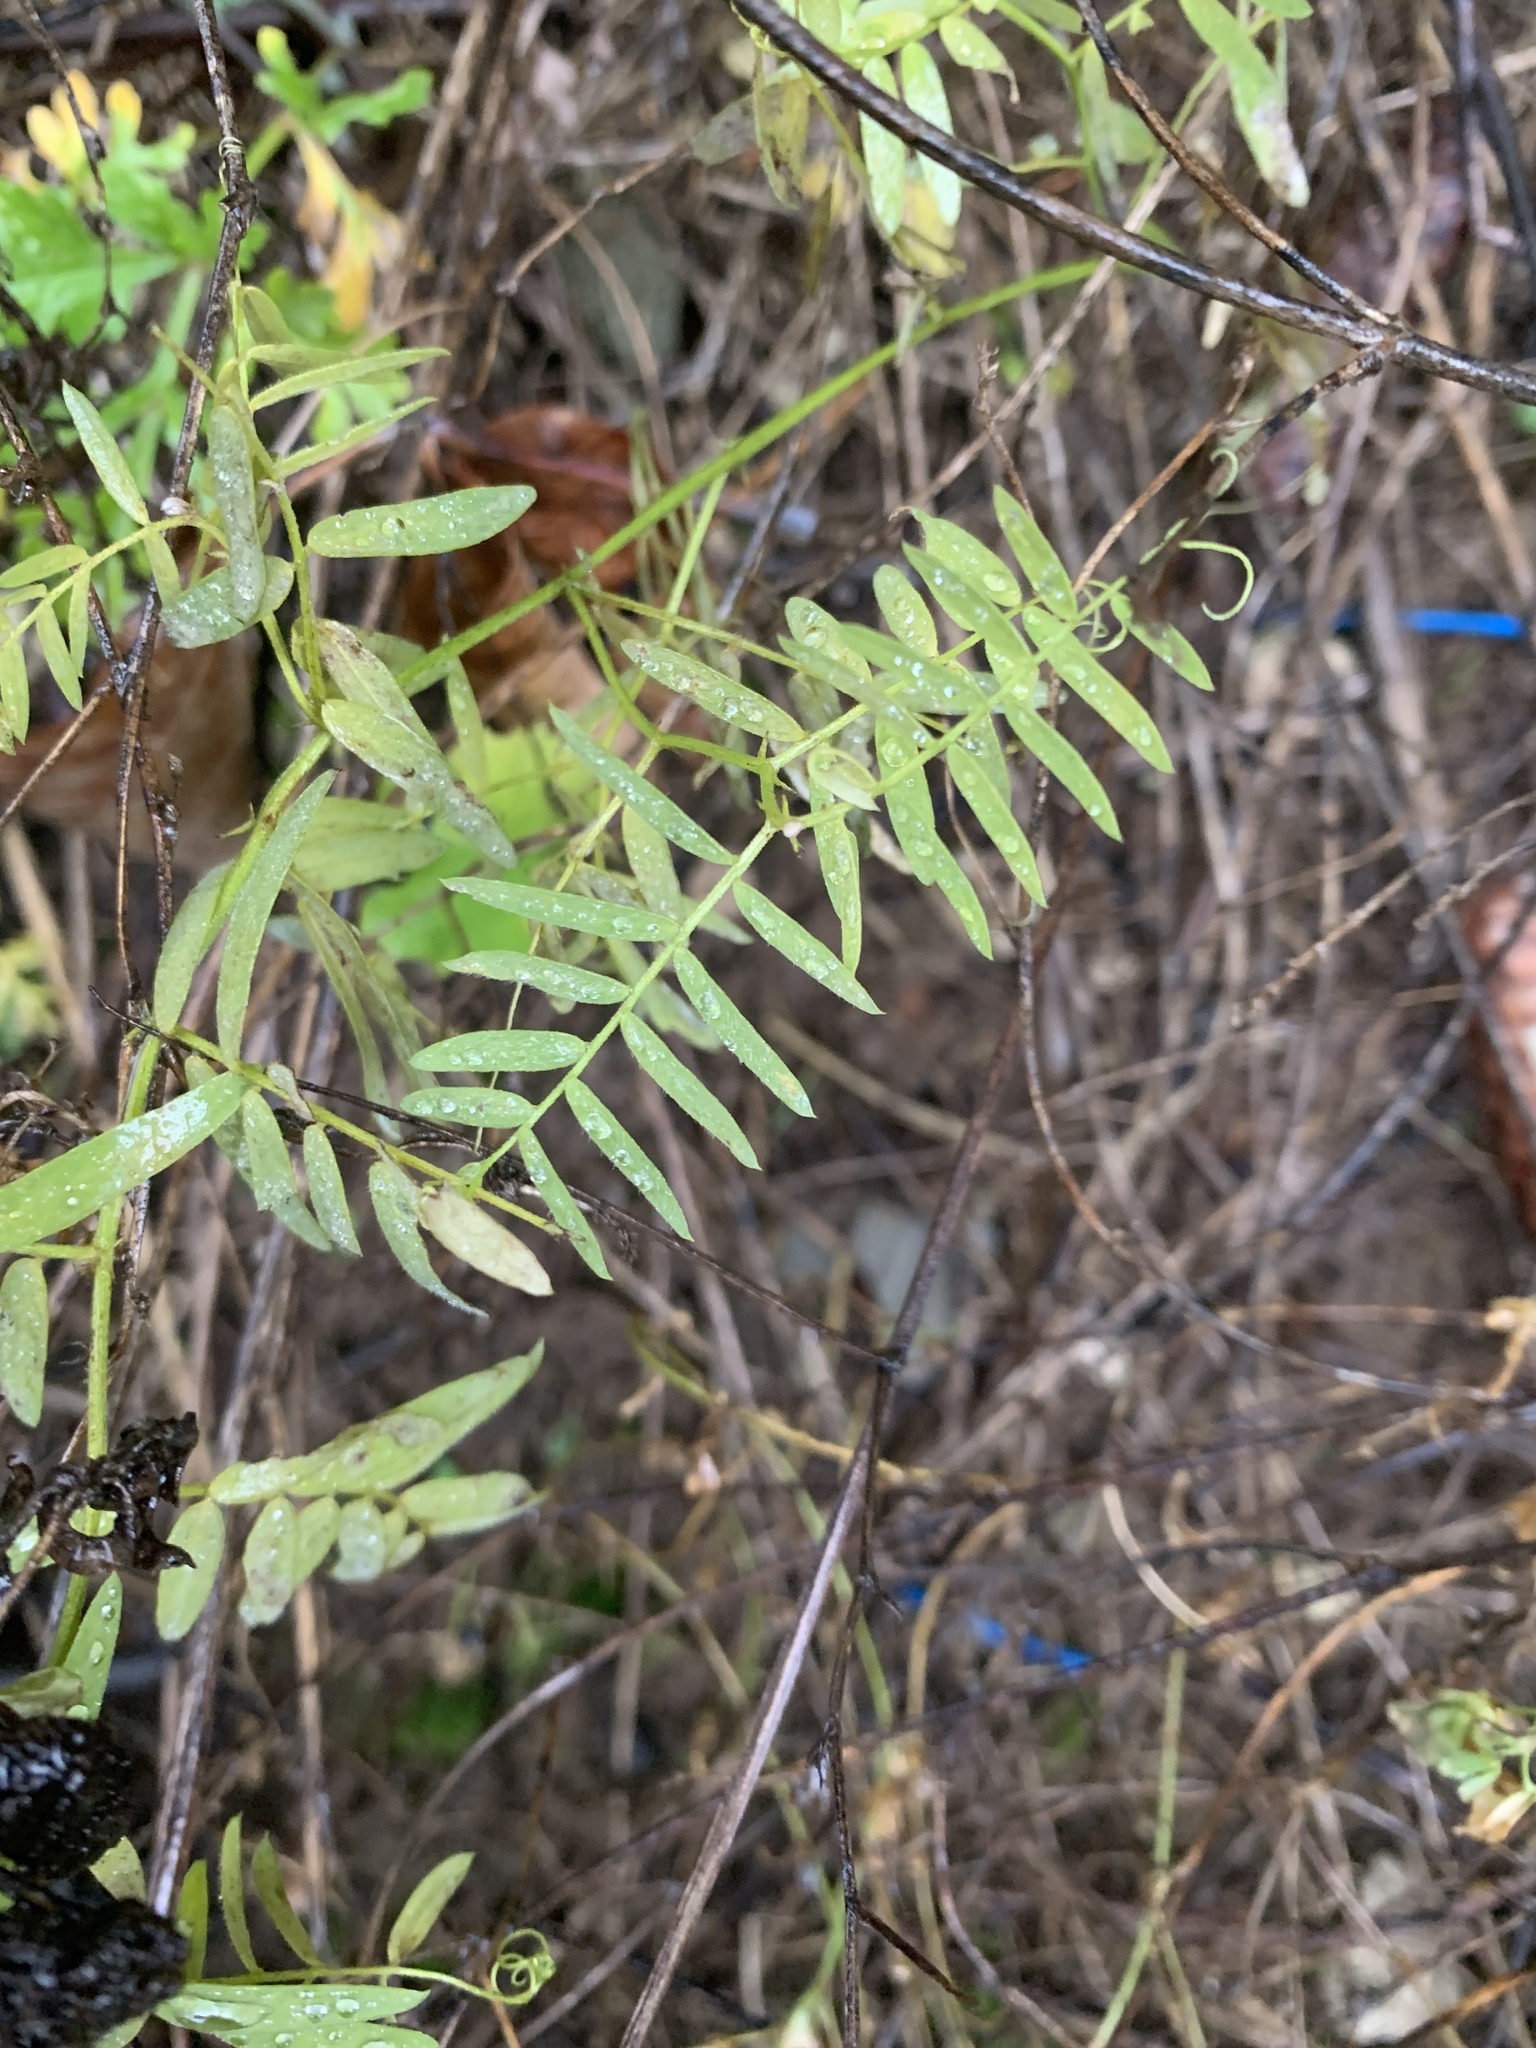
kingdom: Plantae
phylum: Tracheophyta
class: Magnoliopsida
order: Fabales
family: Fabaceae
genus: Vicia
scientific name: Vicia cracca
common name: Bird vetch
